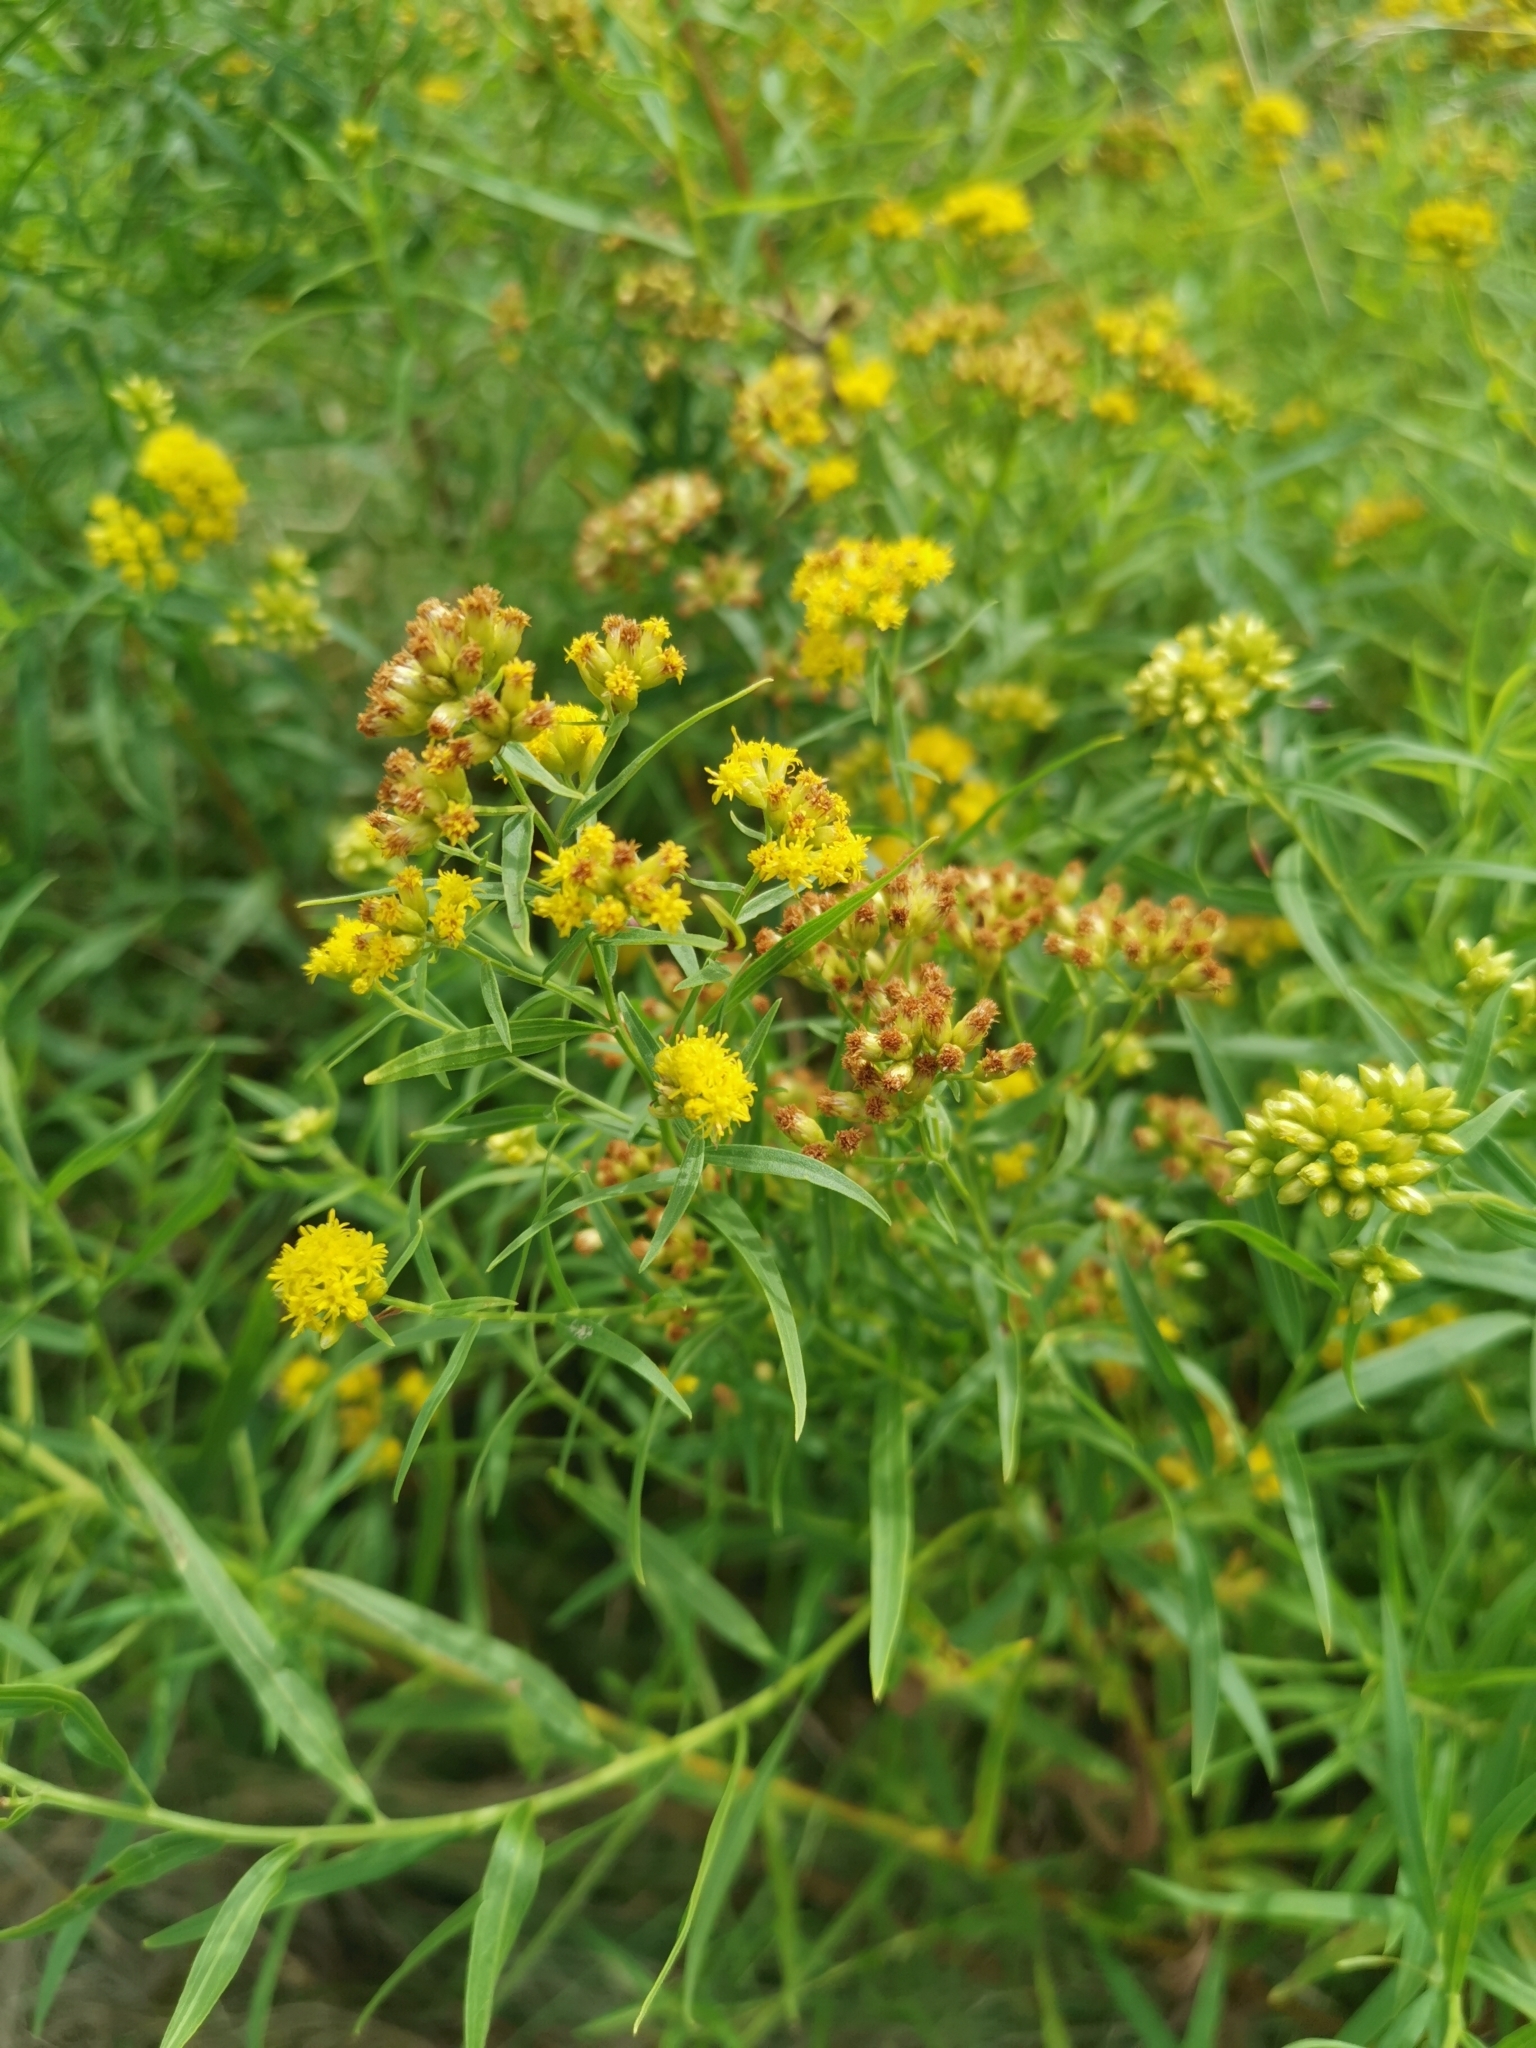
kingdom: Plantae
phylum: Tracheophyta
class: Magnoliopsida
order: Asterales
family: Asteraceae
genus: Euthamia
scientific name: Euthamia graminifolia
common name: Common goldentop
